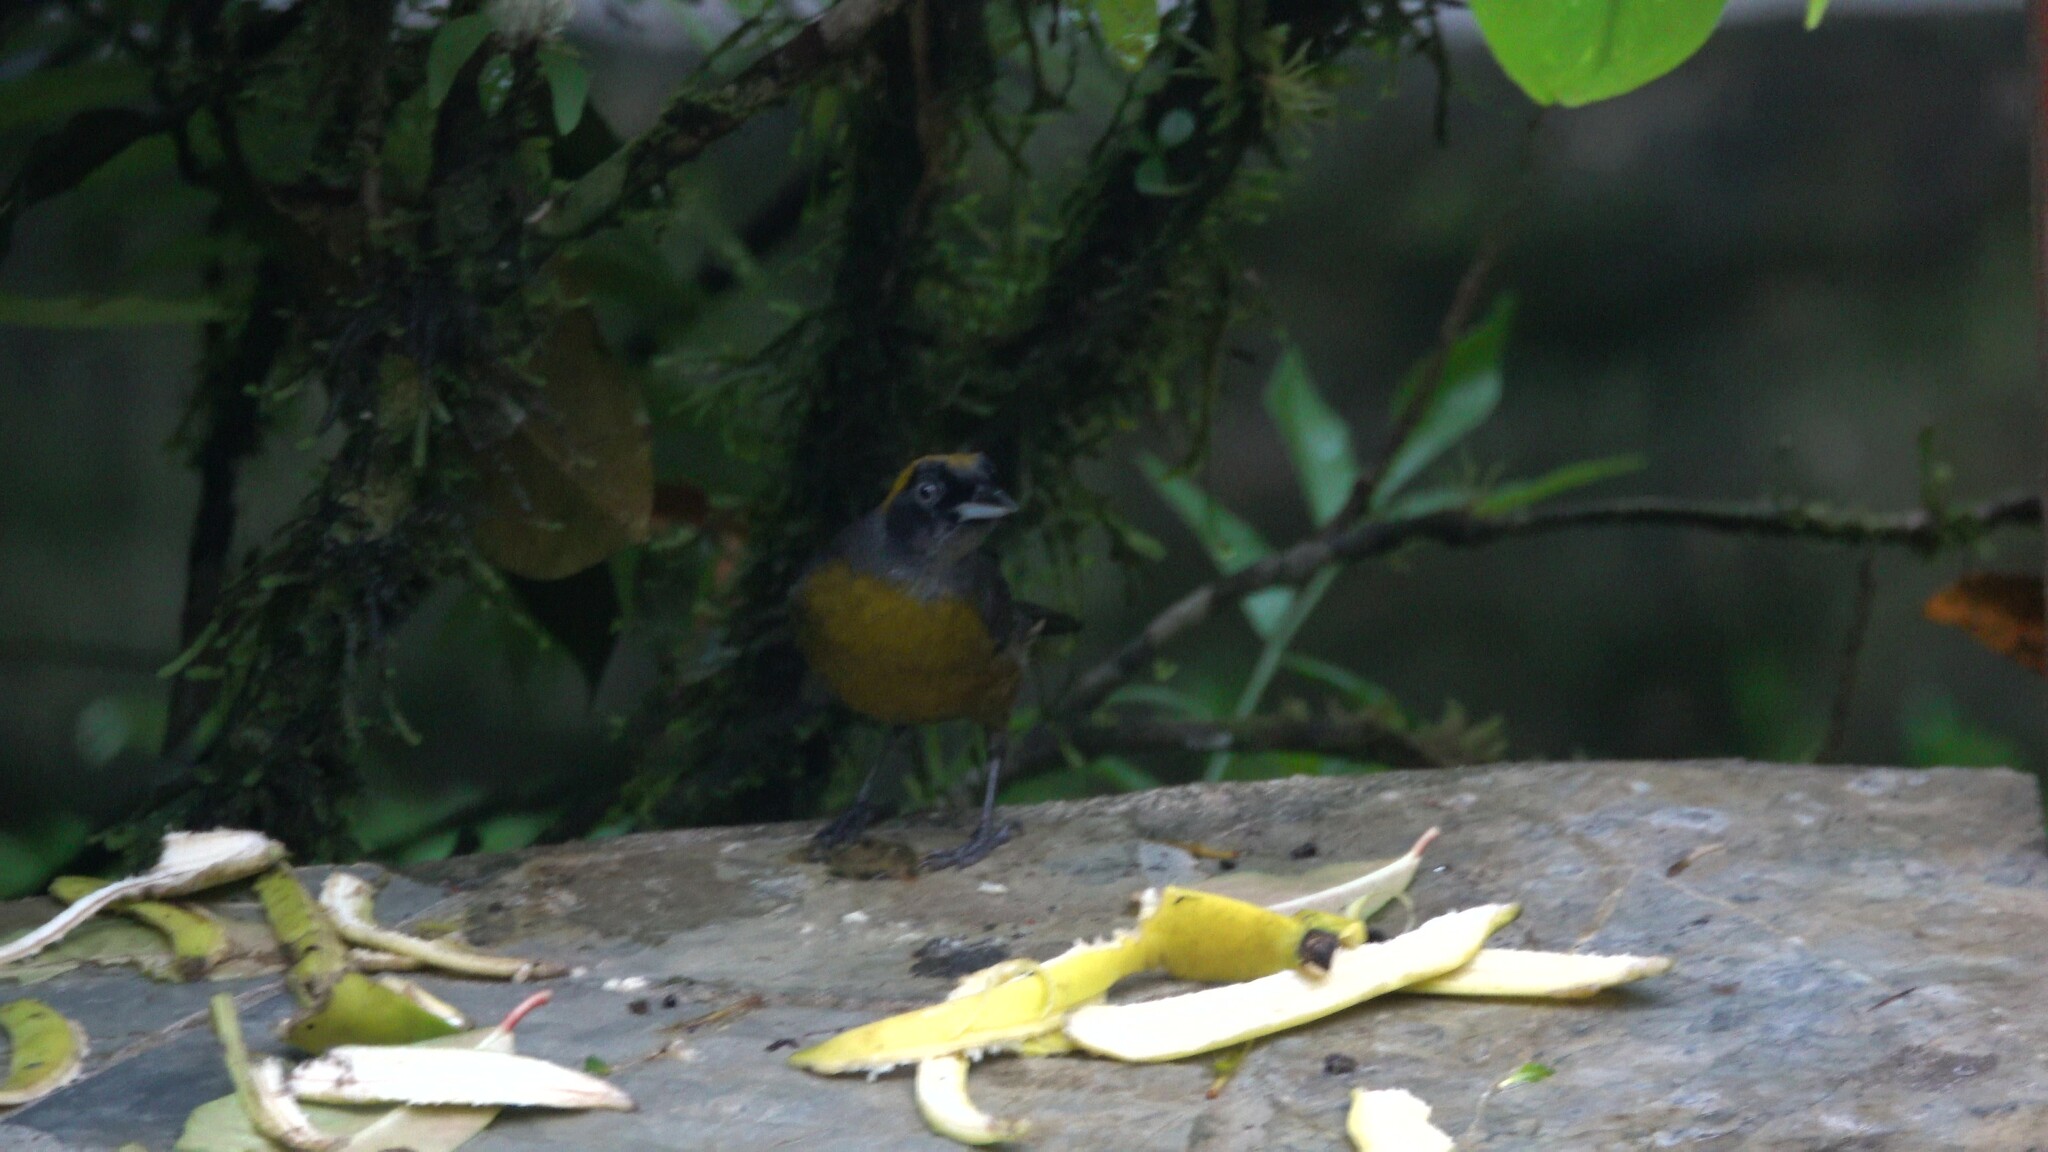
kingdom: Animalia
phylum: Chordata
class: Aves
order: Passeriformes
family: Mitrospingidae
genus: Mitrospingus
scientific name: Mitrospingus cassinii
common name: Dusky-faced tanager
